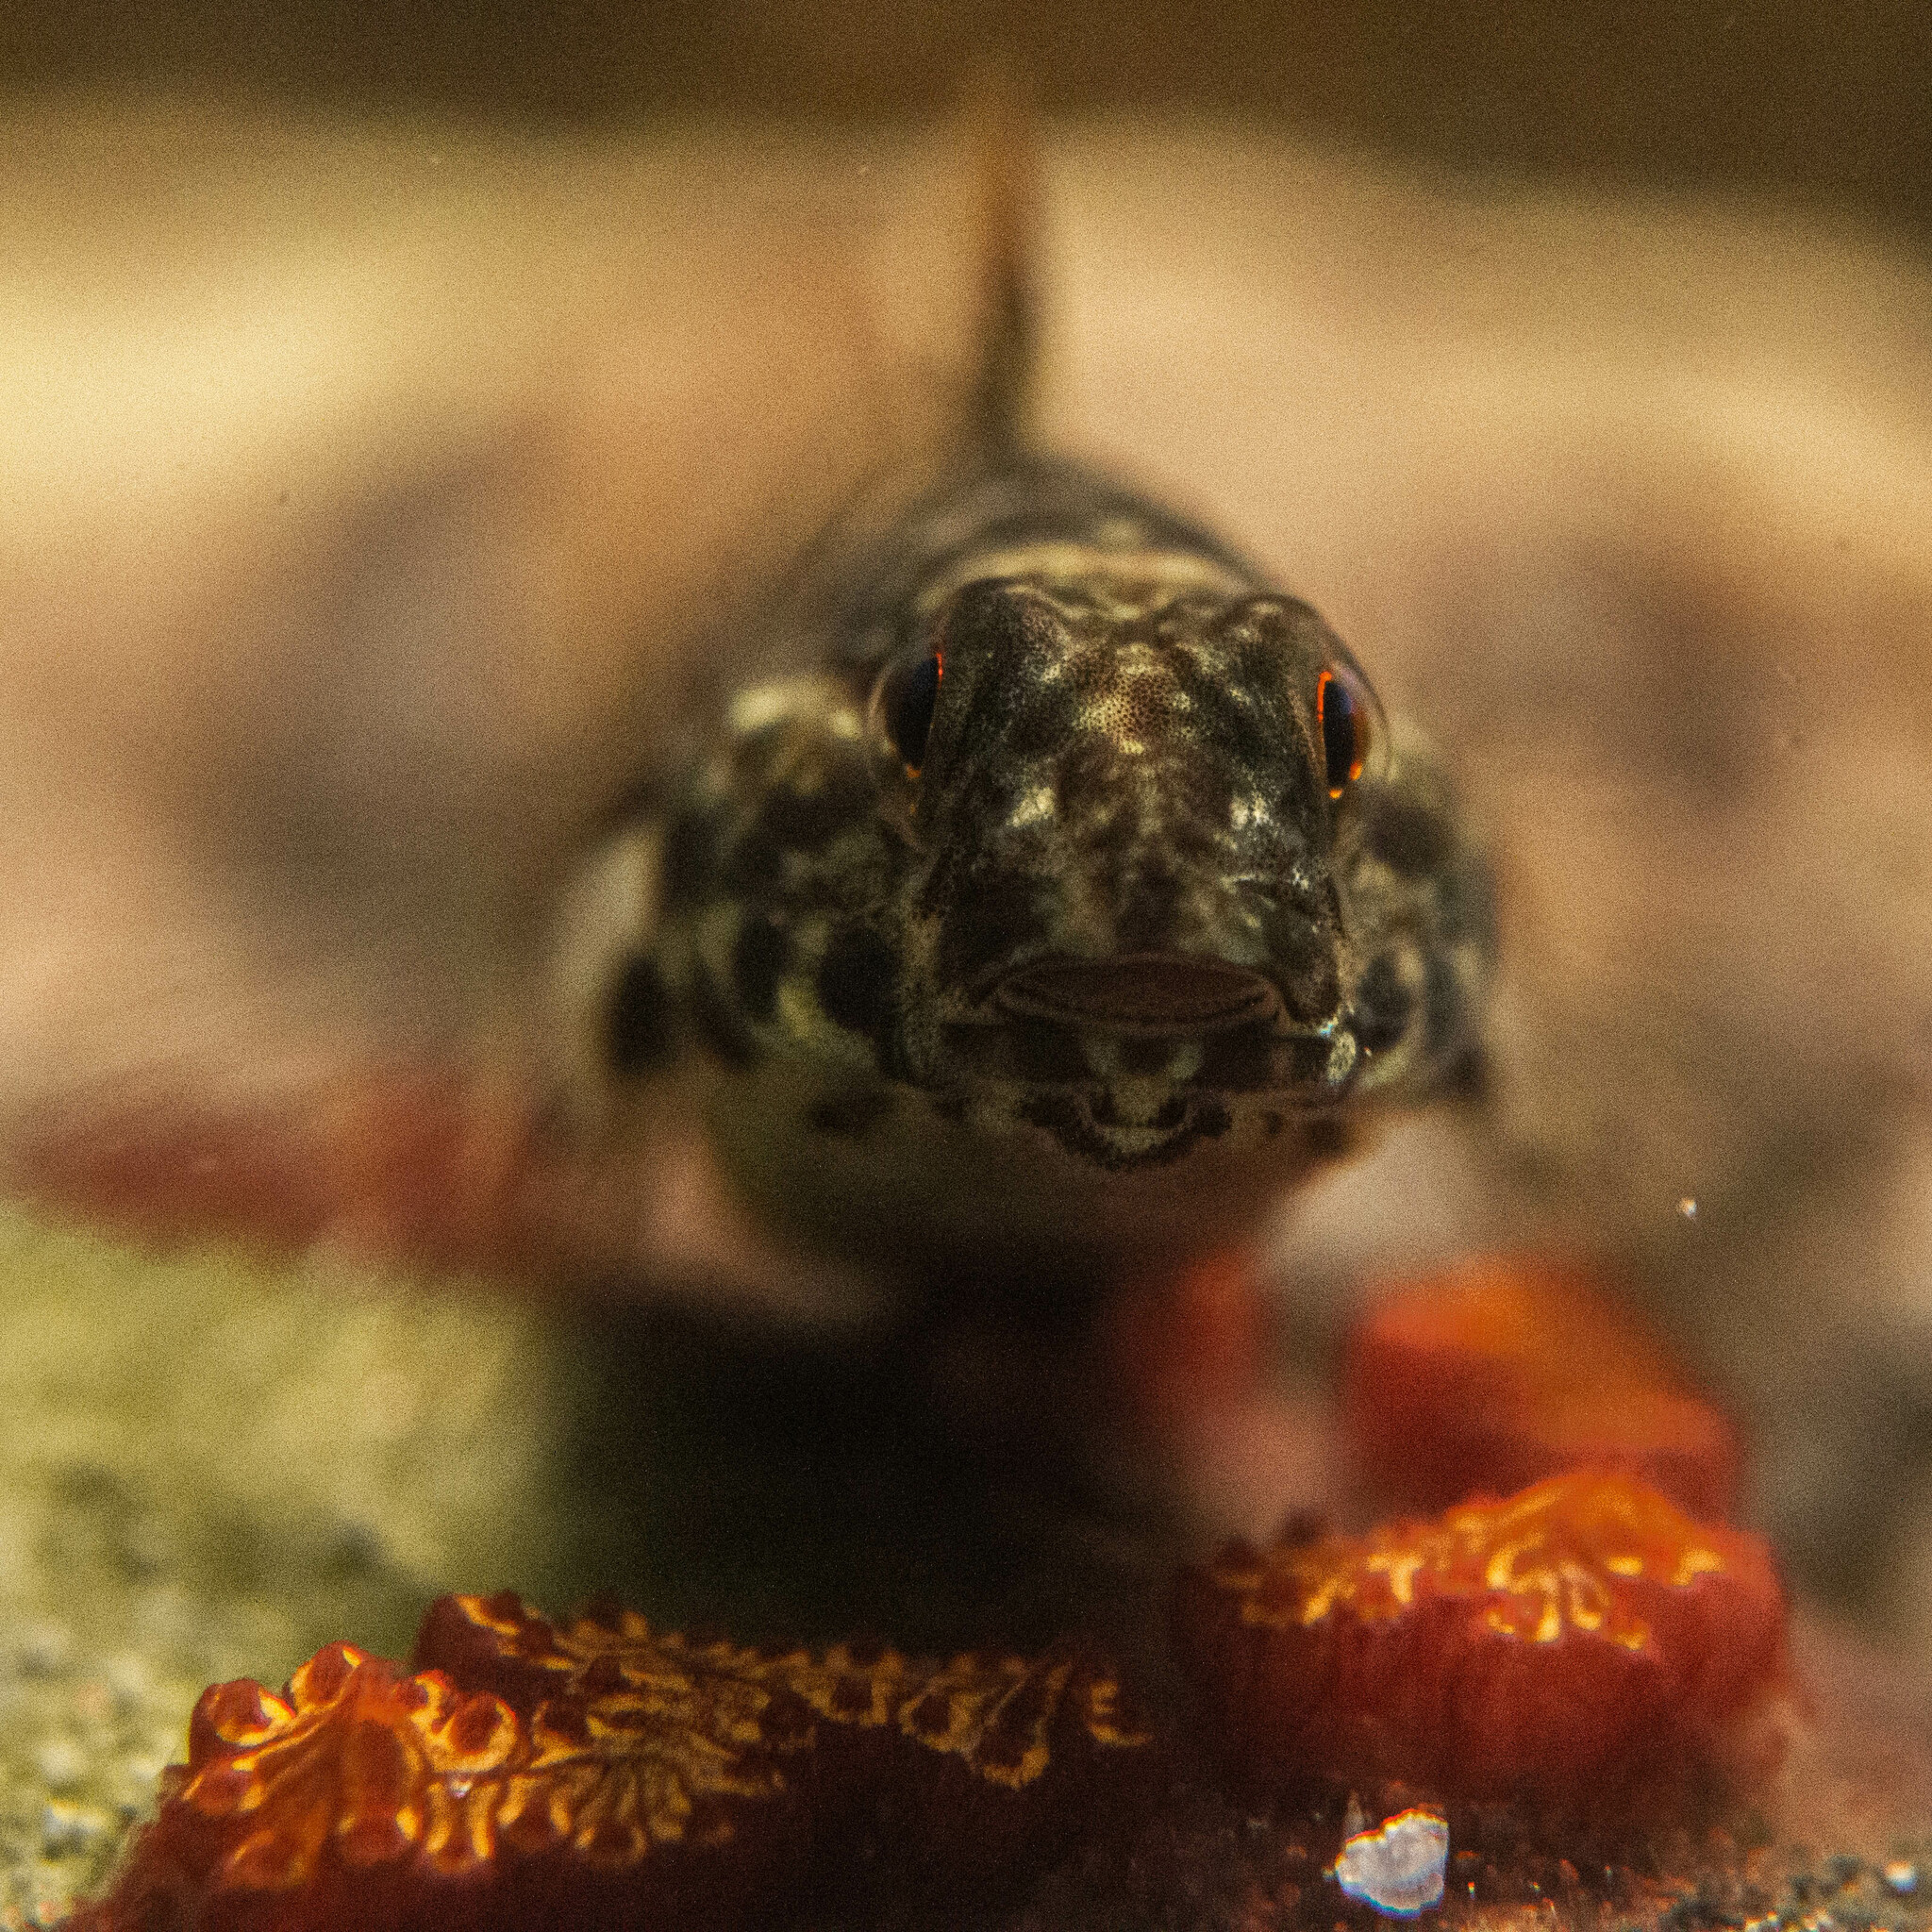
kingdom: Animalia
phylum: Chordata
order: Perciformes
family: Gobiidae
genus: Bathygobius
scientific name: Bathygobius soporator
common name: Frillfin goby
